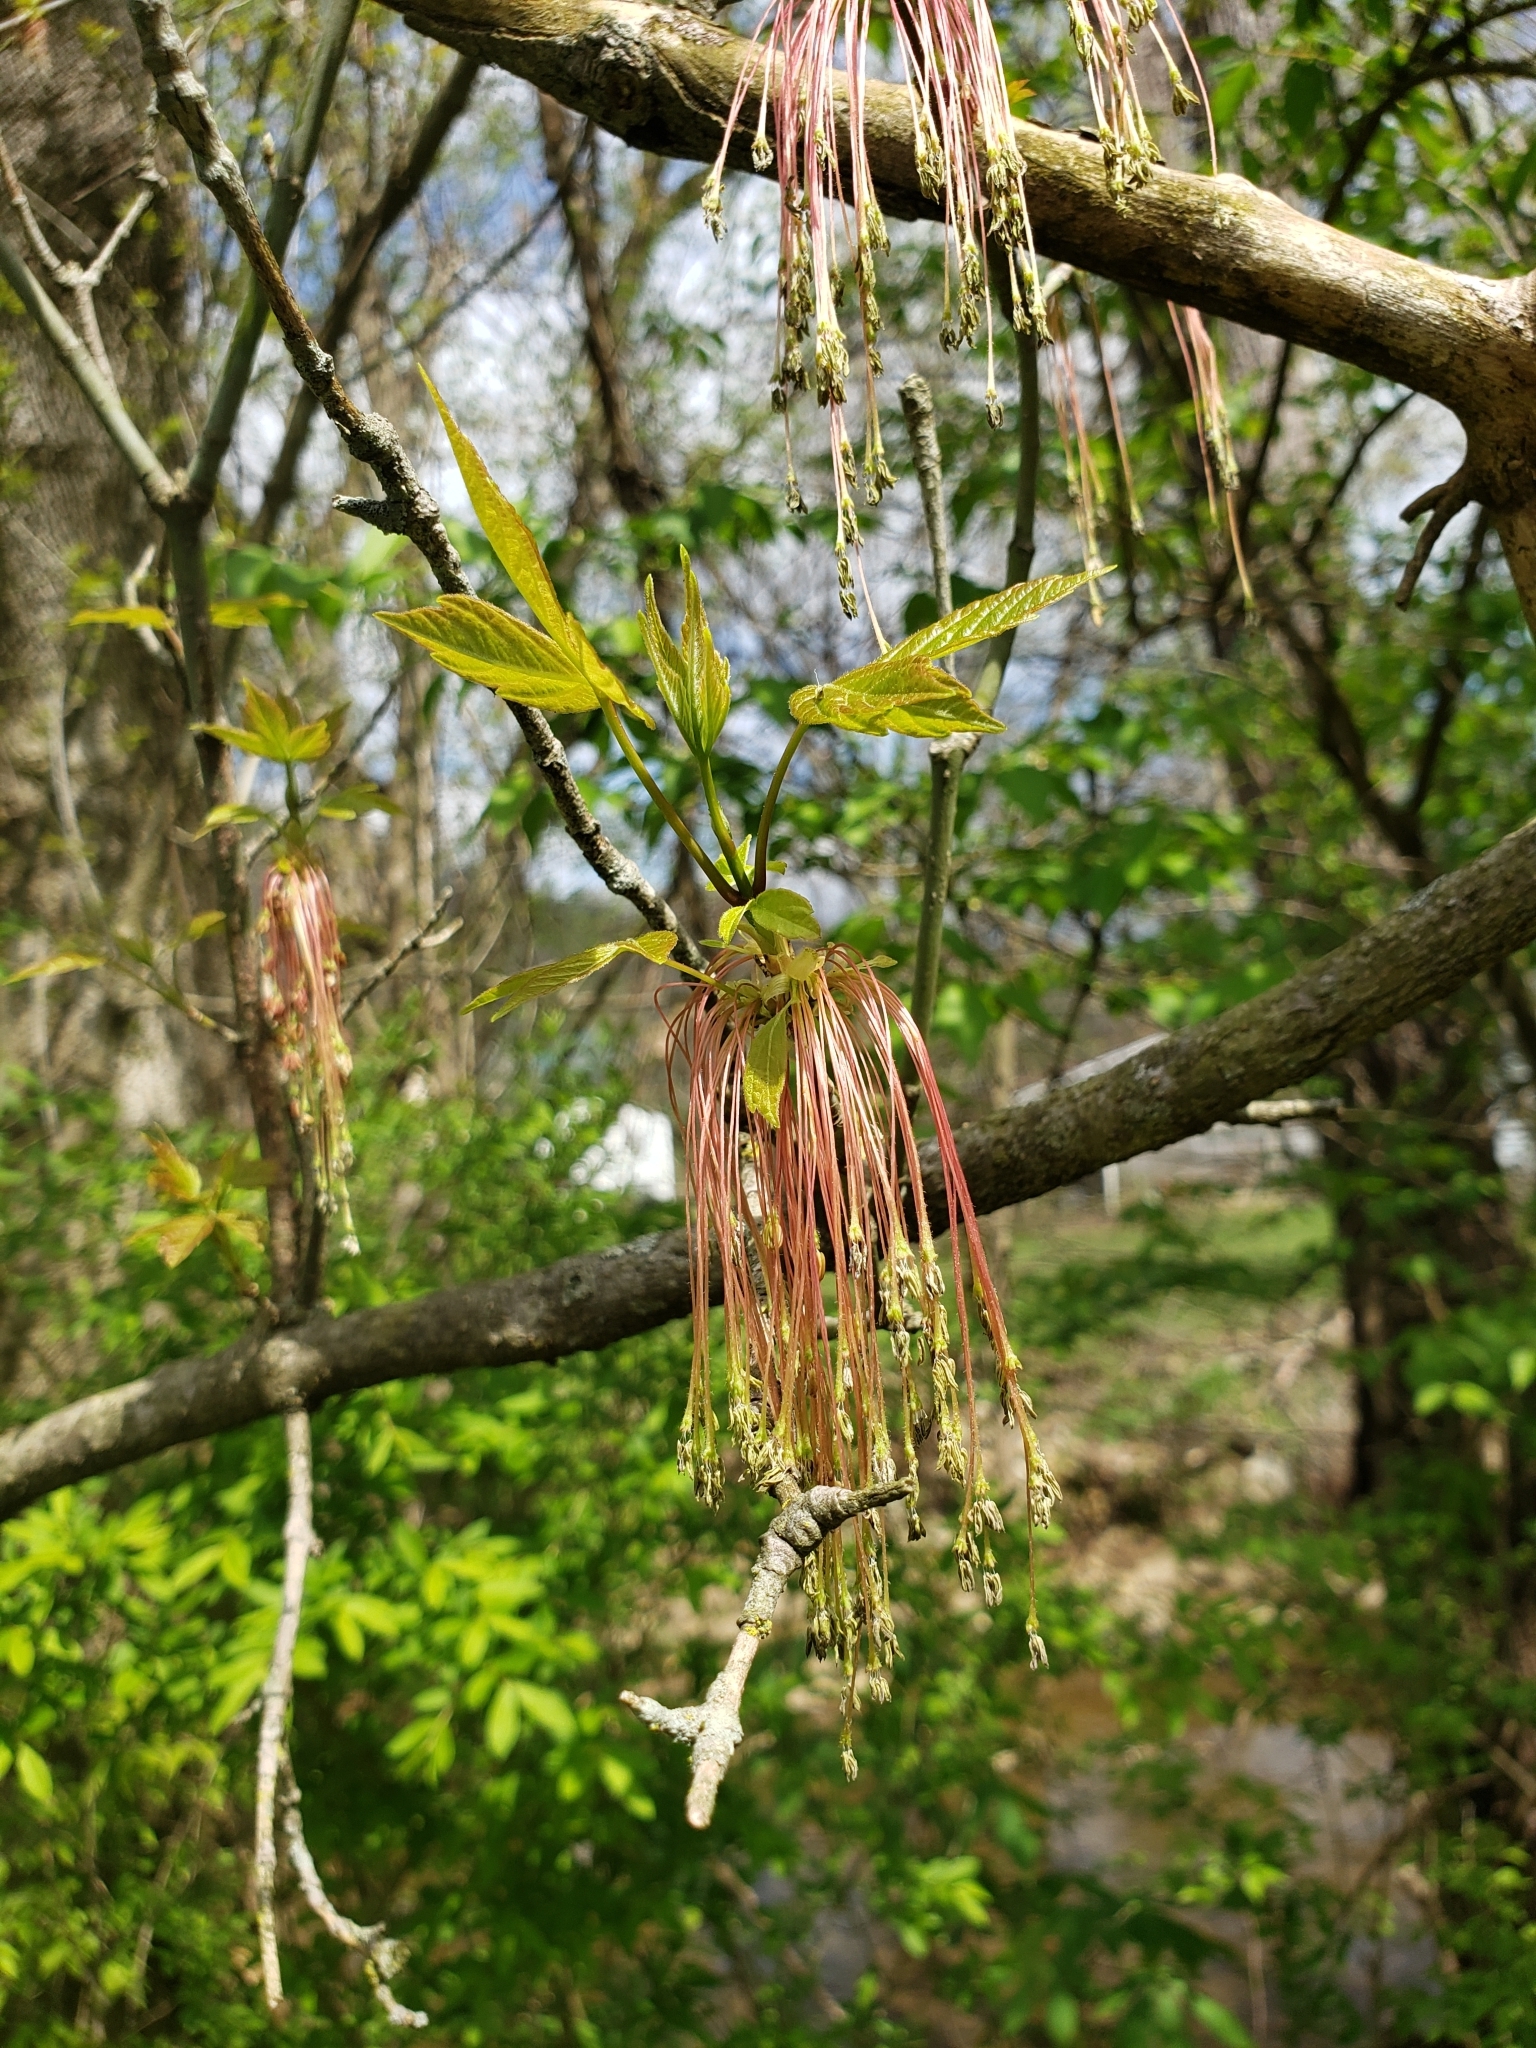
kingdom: Plantae
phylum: Tracheophyta
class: Magnoliopsida
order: Sapindales
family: Sapindaceae
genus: Acer
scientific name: Acer negundo
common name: Ashleaf maple
